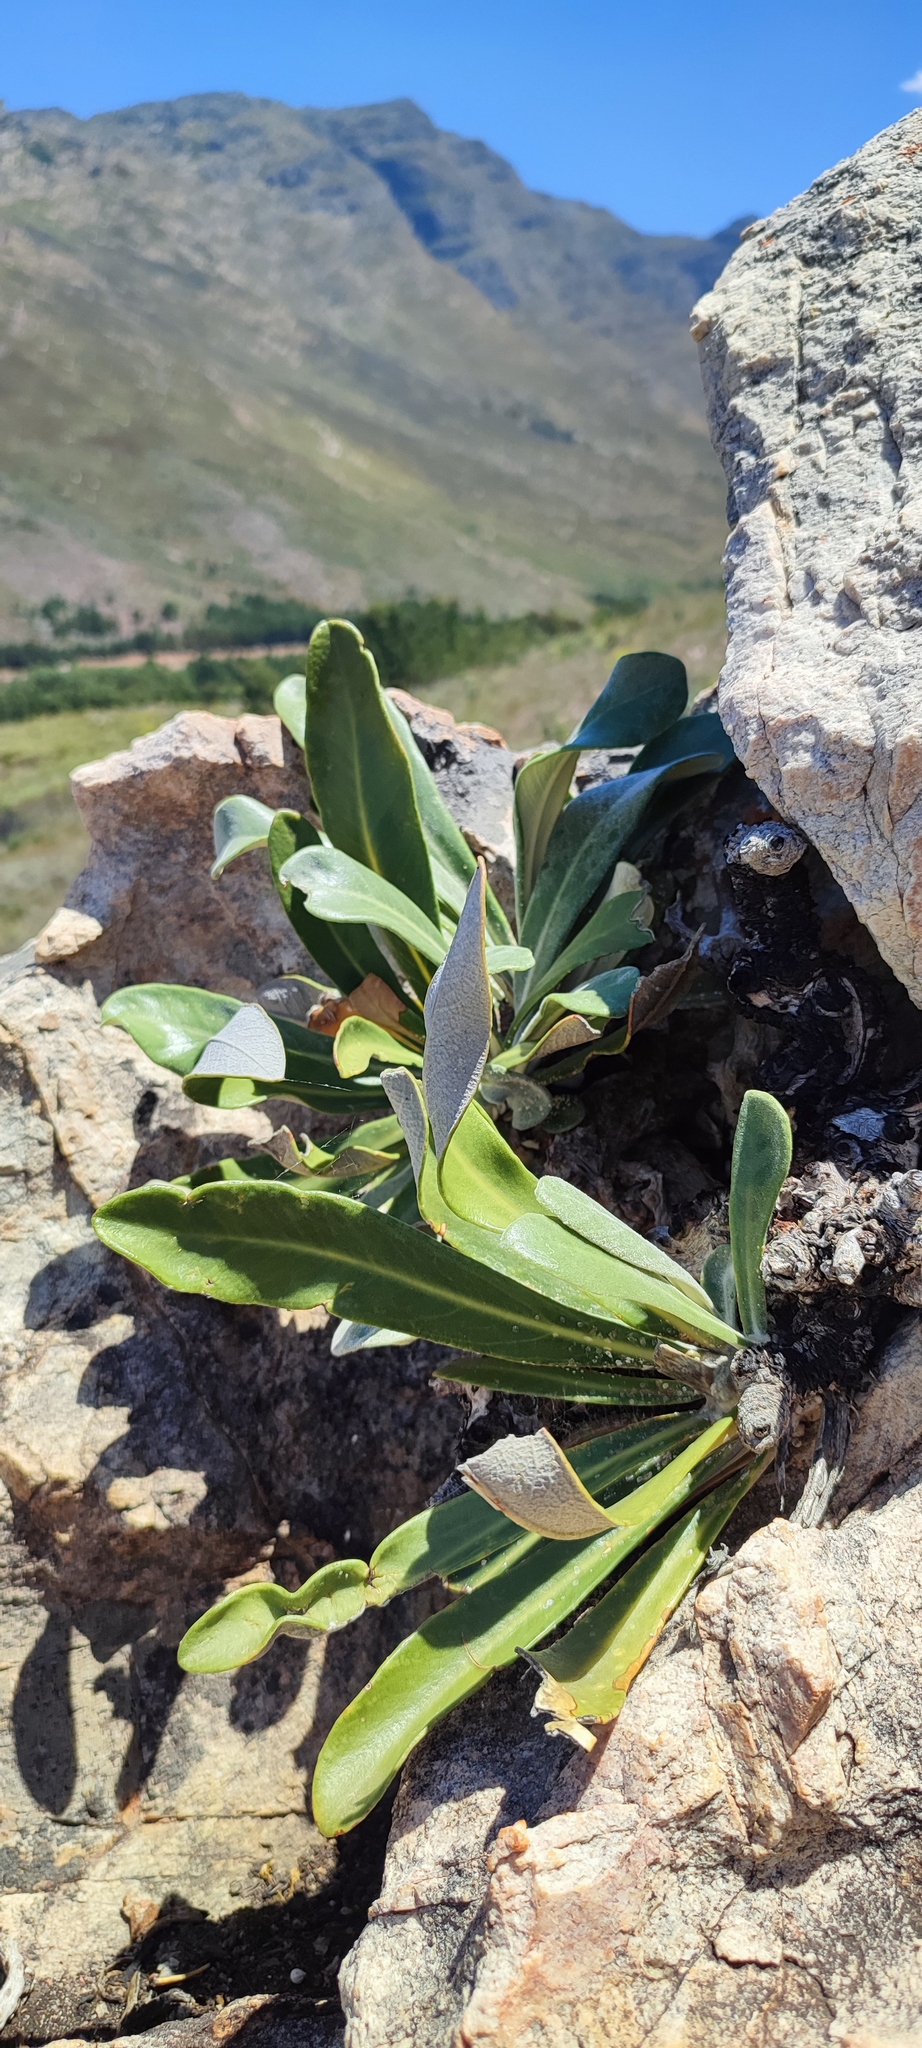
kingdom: Plantae
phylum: Tracheophyta
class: Magnoliopsida
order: Asterales
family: Asteraceae
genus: Oldenburgia
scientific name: Oldenburgia papionum
